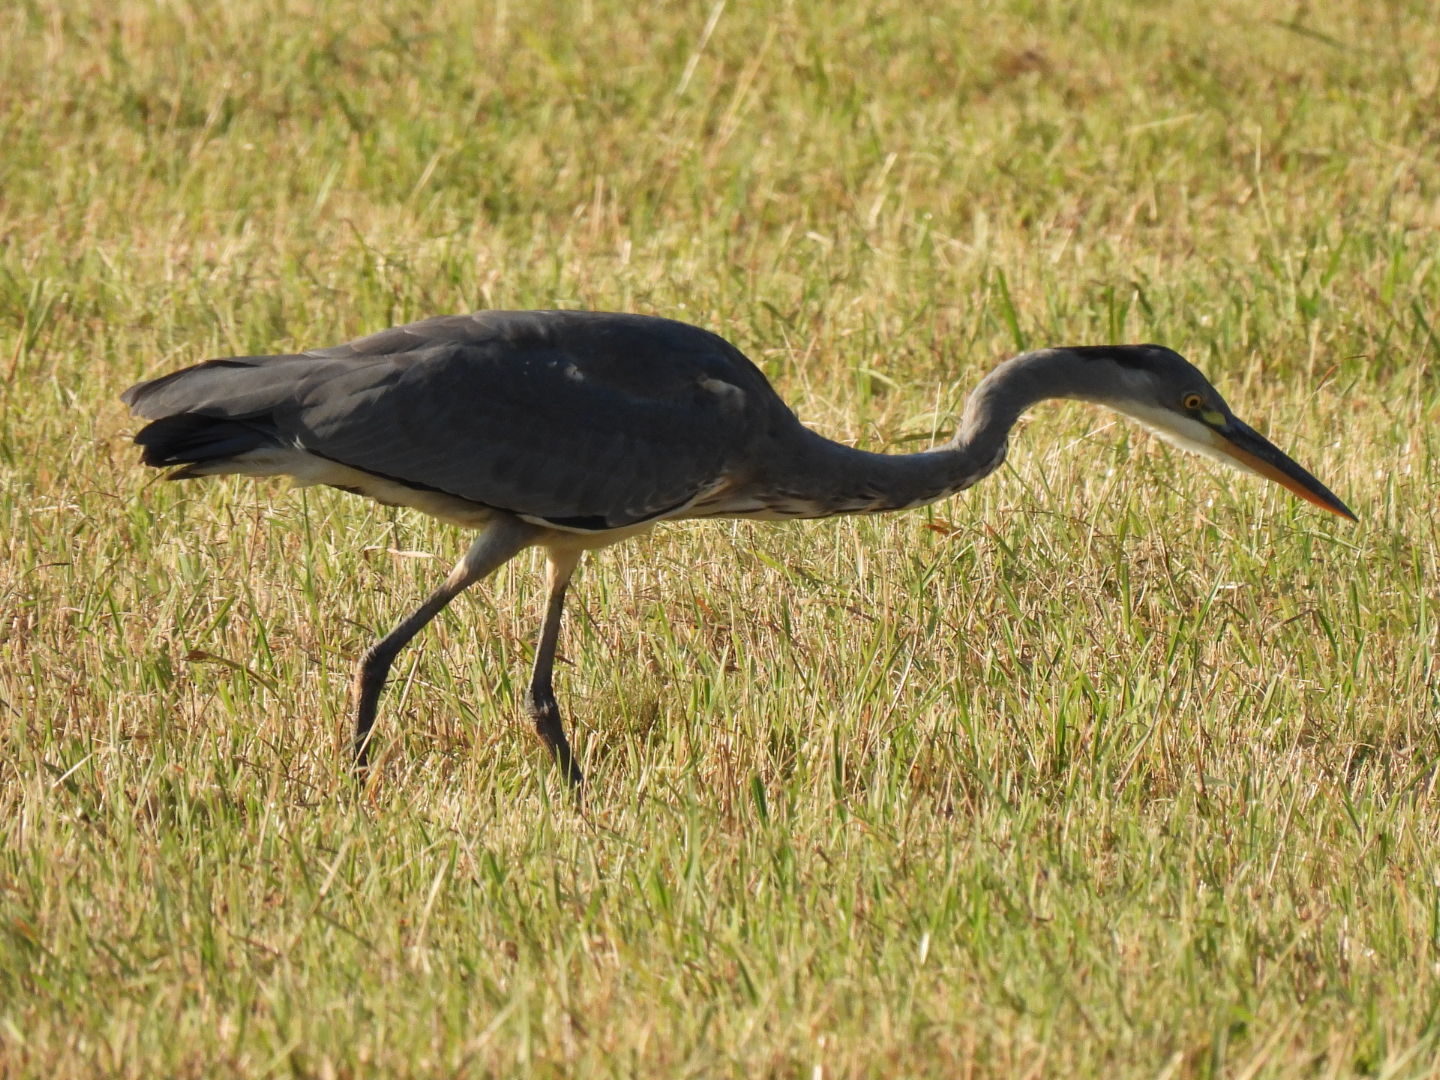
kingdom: Animalia
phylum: Chordata
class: Aves
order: Pelecaniformes
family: Ardeidae
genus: Ardea
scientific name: Ardea cinerea
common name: Grey heron
